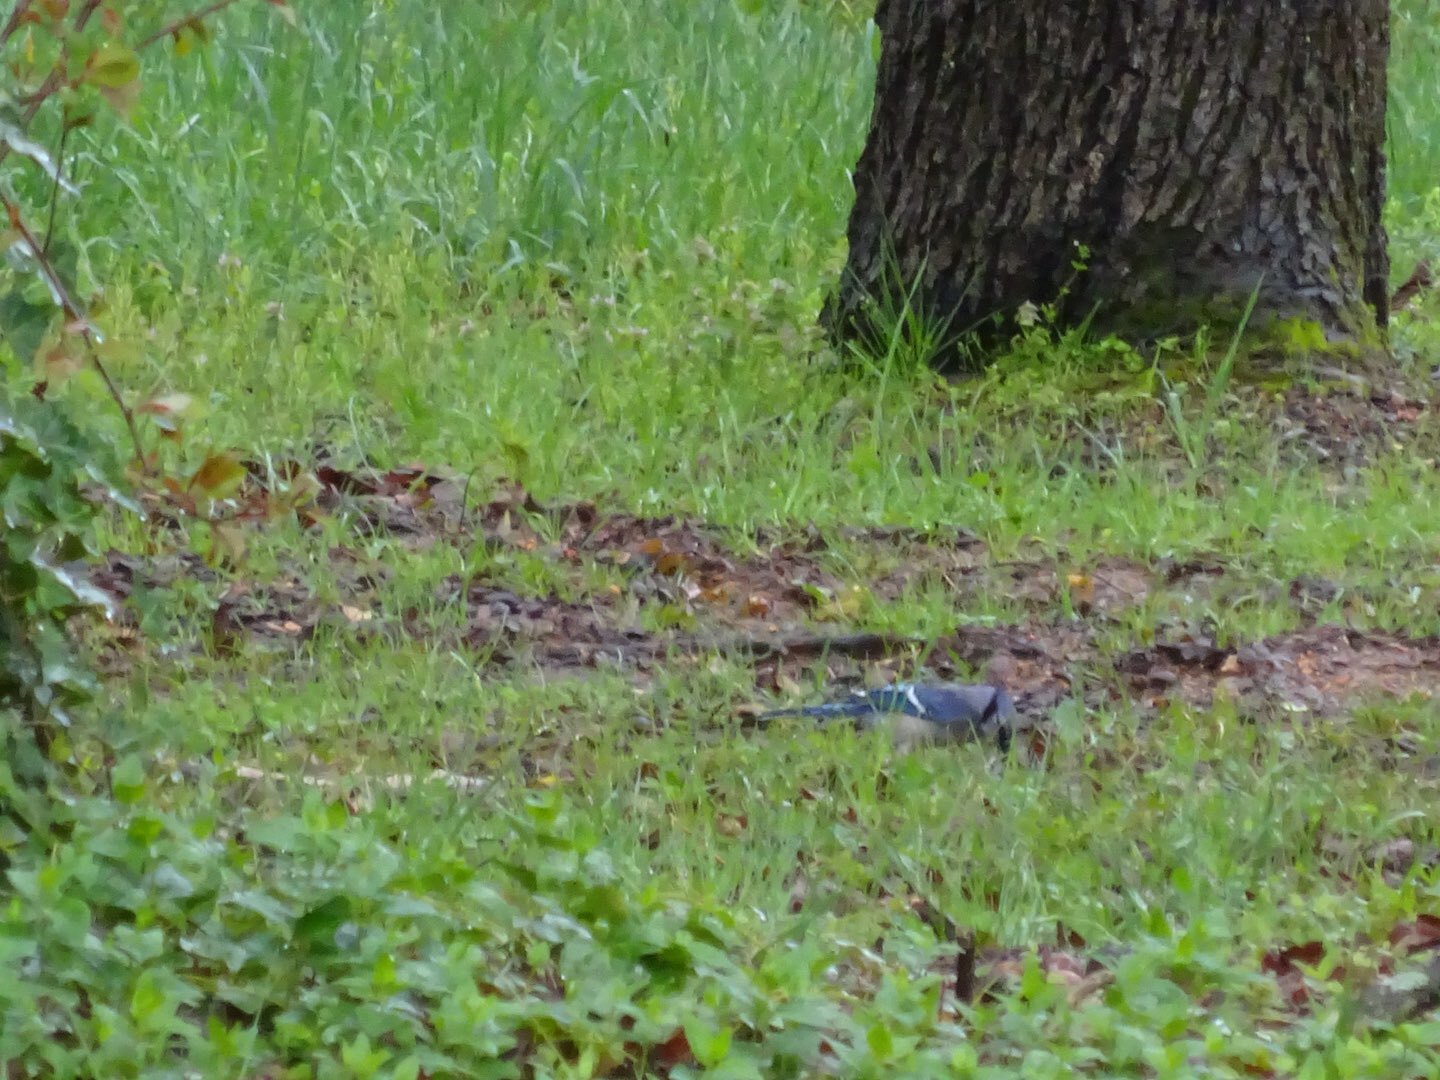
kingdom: Animalia
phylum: Chordata
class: Aves
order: Passeriformes
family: Corvidae
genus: Cyanocitta
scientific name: Cyanocitta cristata
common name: Blue jay
